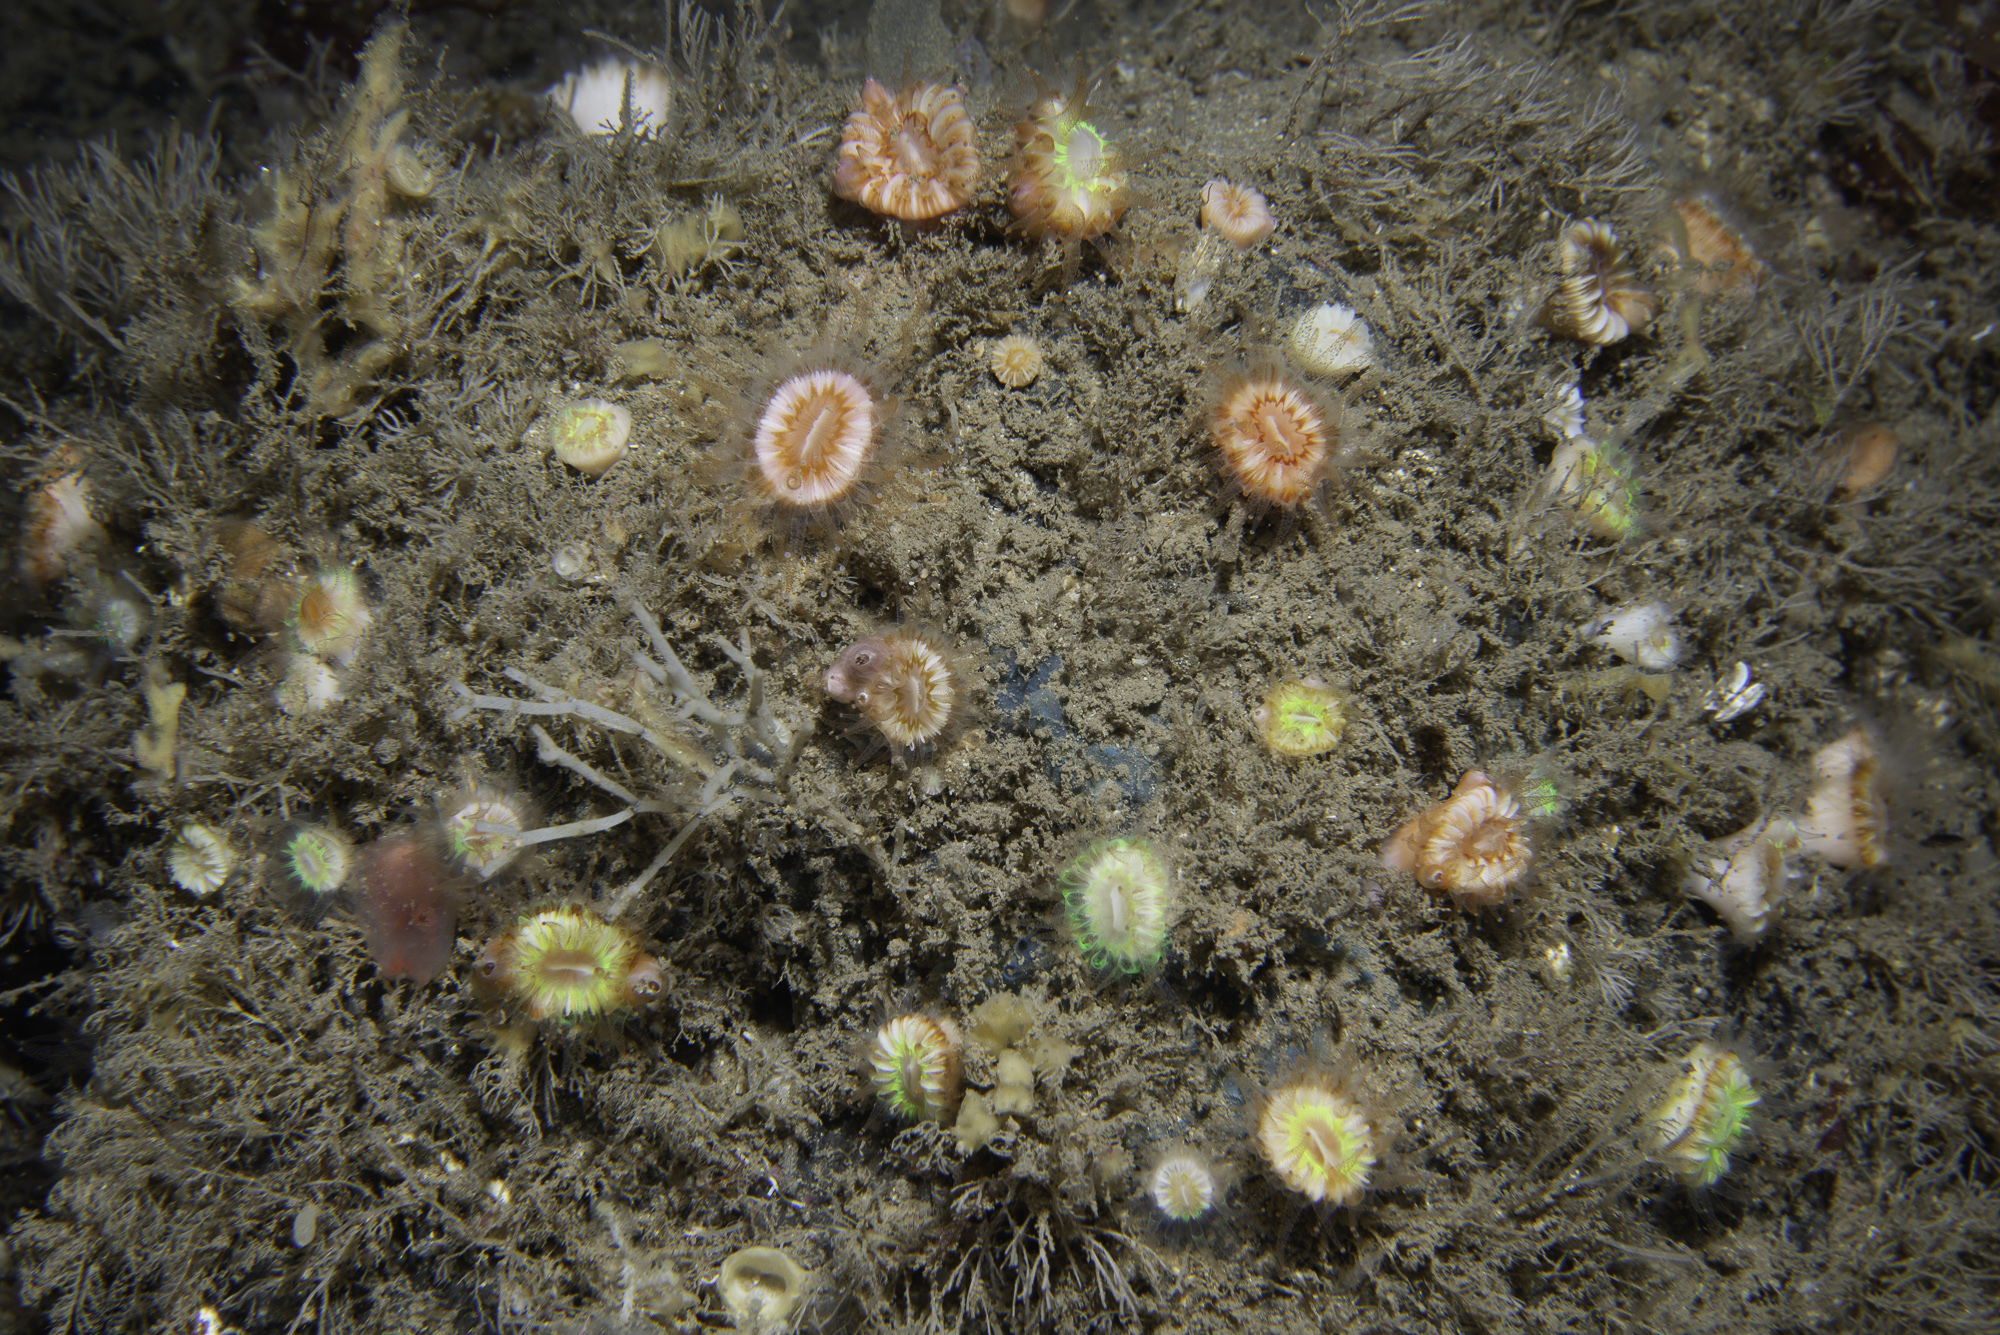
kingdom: Animalia
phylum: Cnidaria
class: Anthozoa
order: Scleractinia
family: Caryophylliidae
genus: Caryophyllia
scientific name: Caryophyllia smithii
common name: Devonshire cup coral
